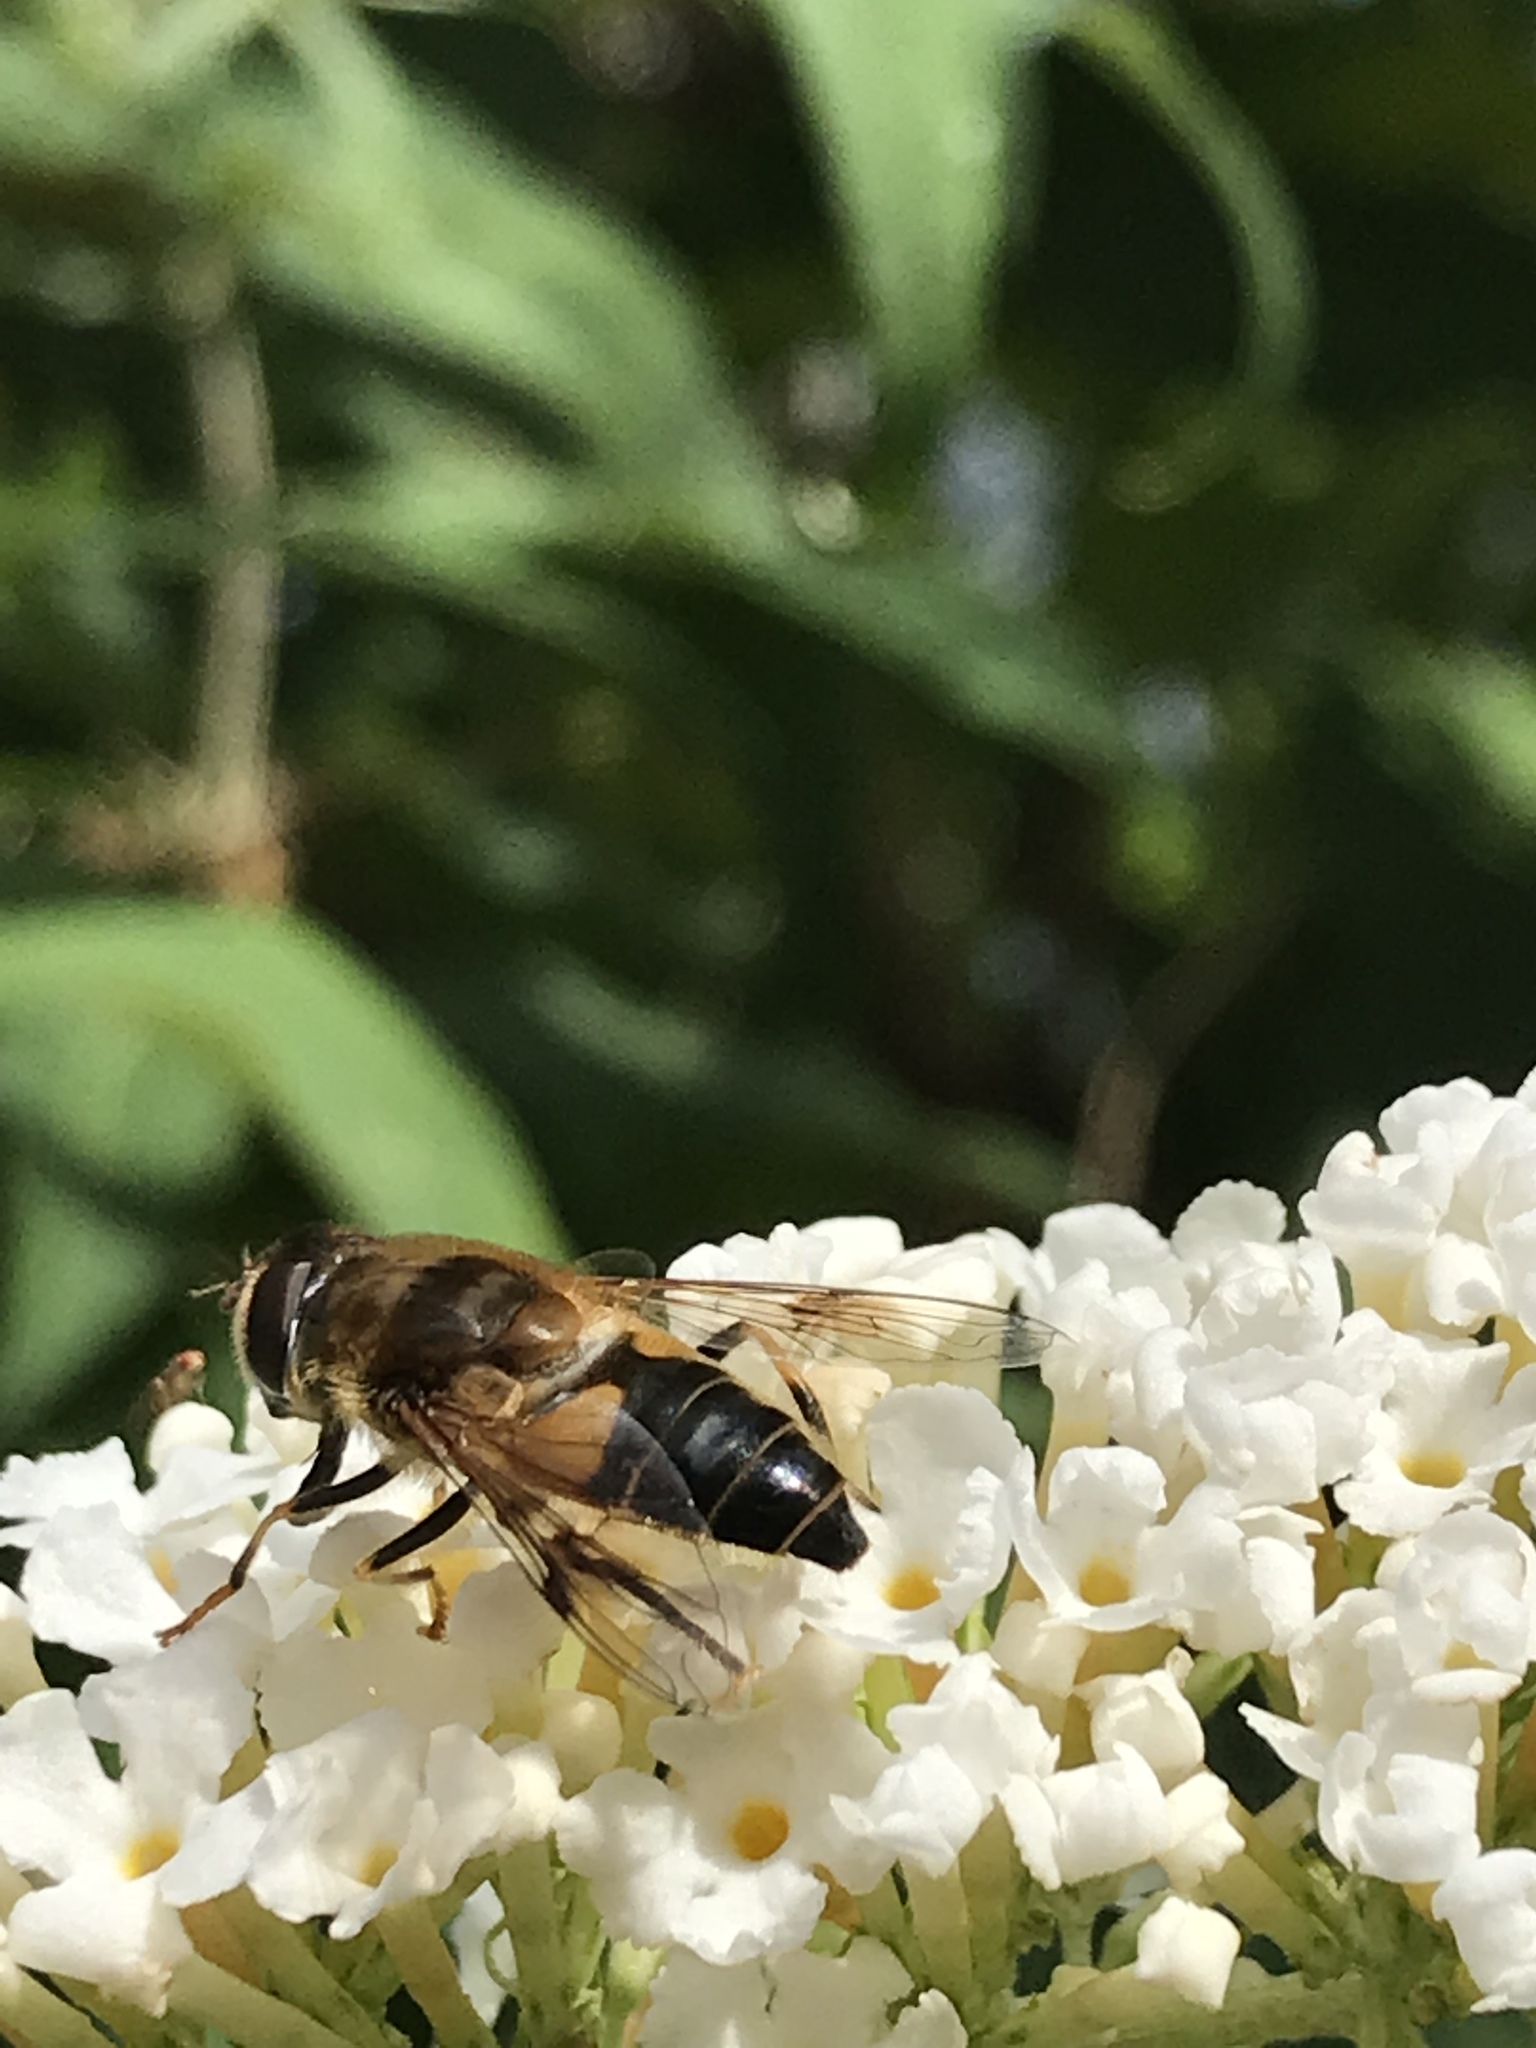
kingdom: Animalia
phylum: Arthropoda
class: Insecta
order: Diptera
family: Syrphidae
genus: Eristalis
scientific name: Eristalis pertinax
